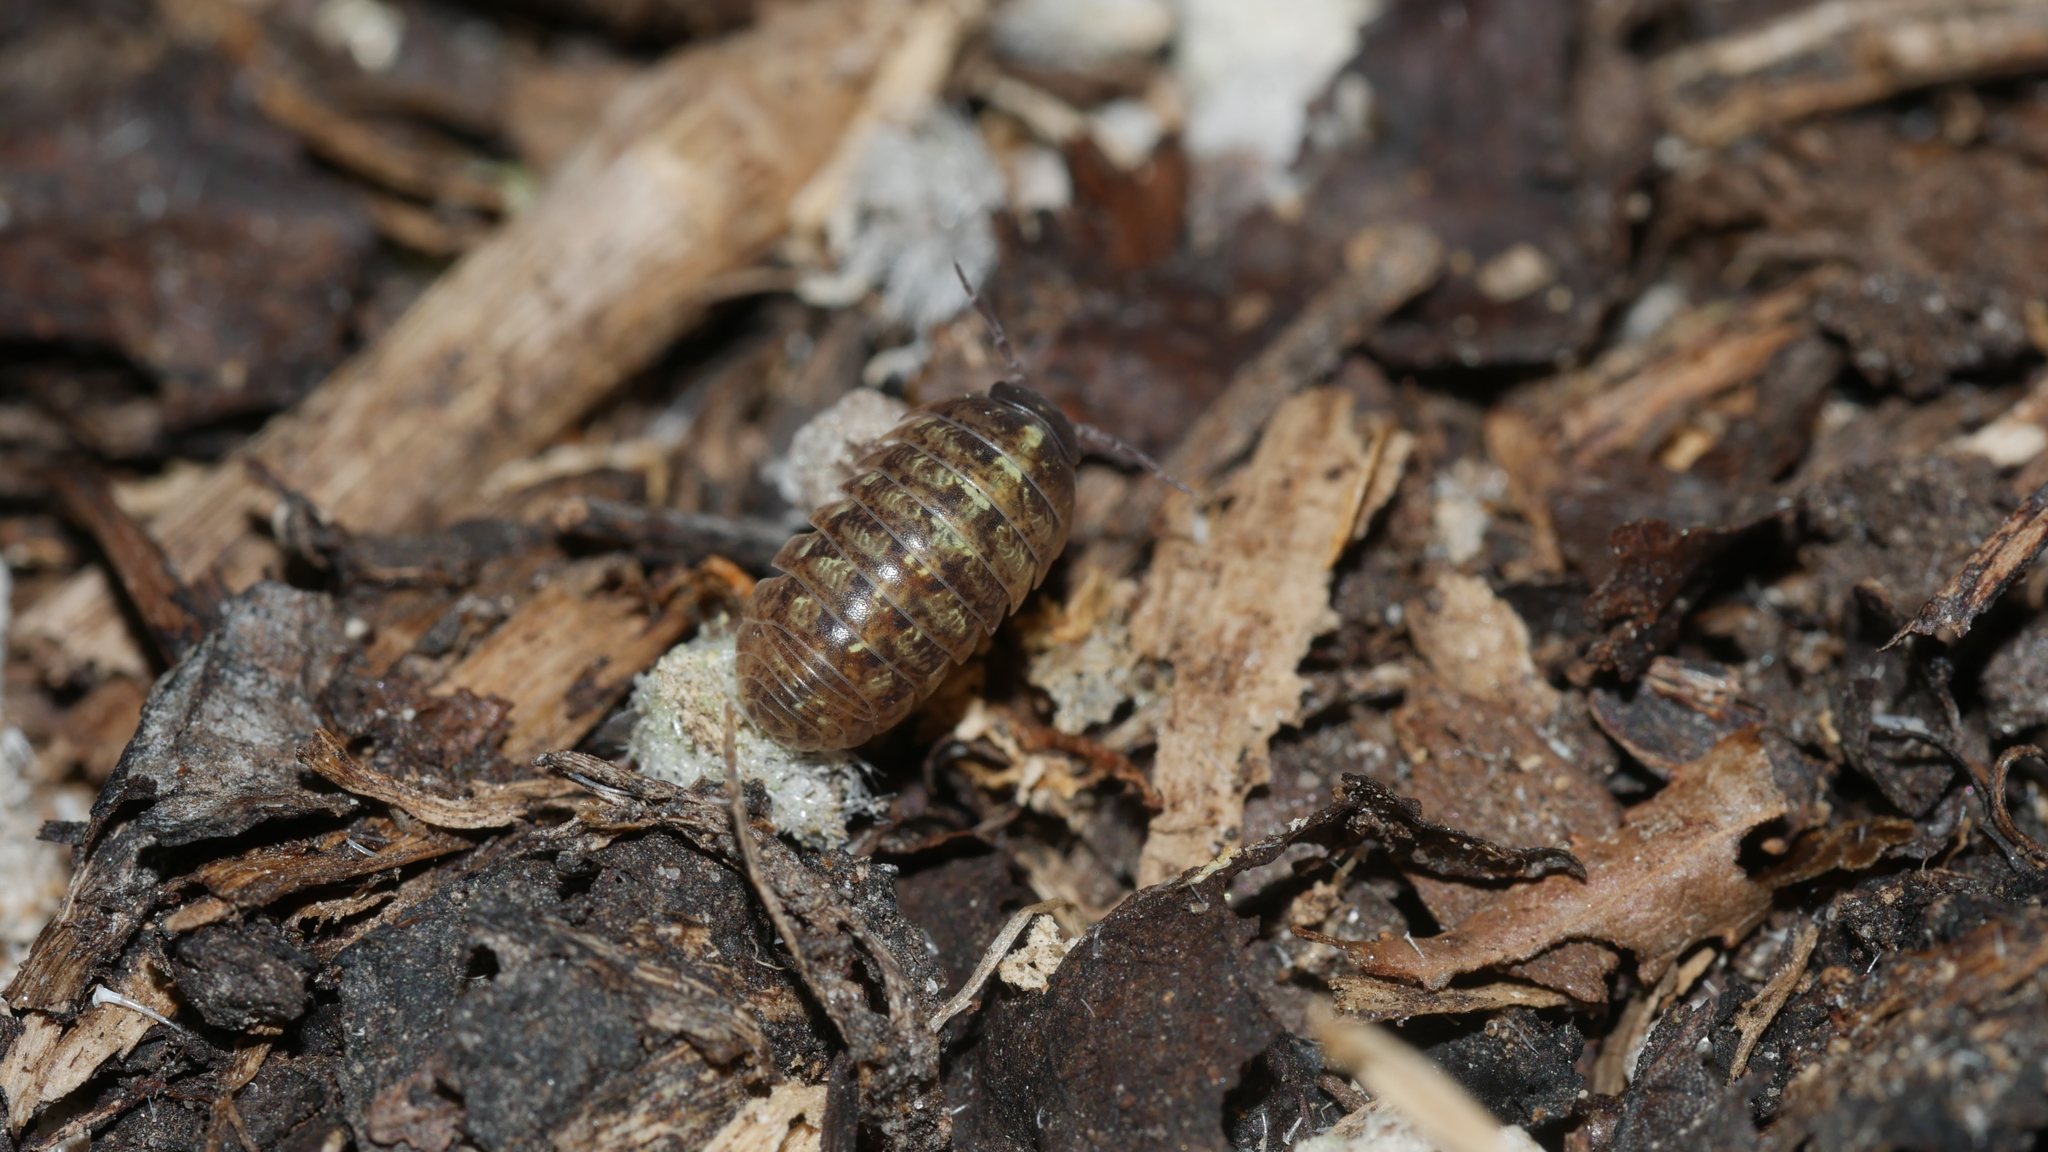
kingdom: Animalia
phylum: Arthropoda
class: Malacostraca
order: Isopoda
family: Armadillidiidae
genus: Armadillidium
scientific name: Armadillidium vulgare
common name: Common pill woodlouse
